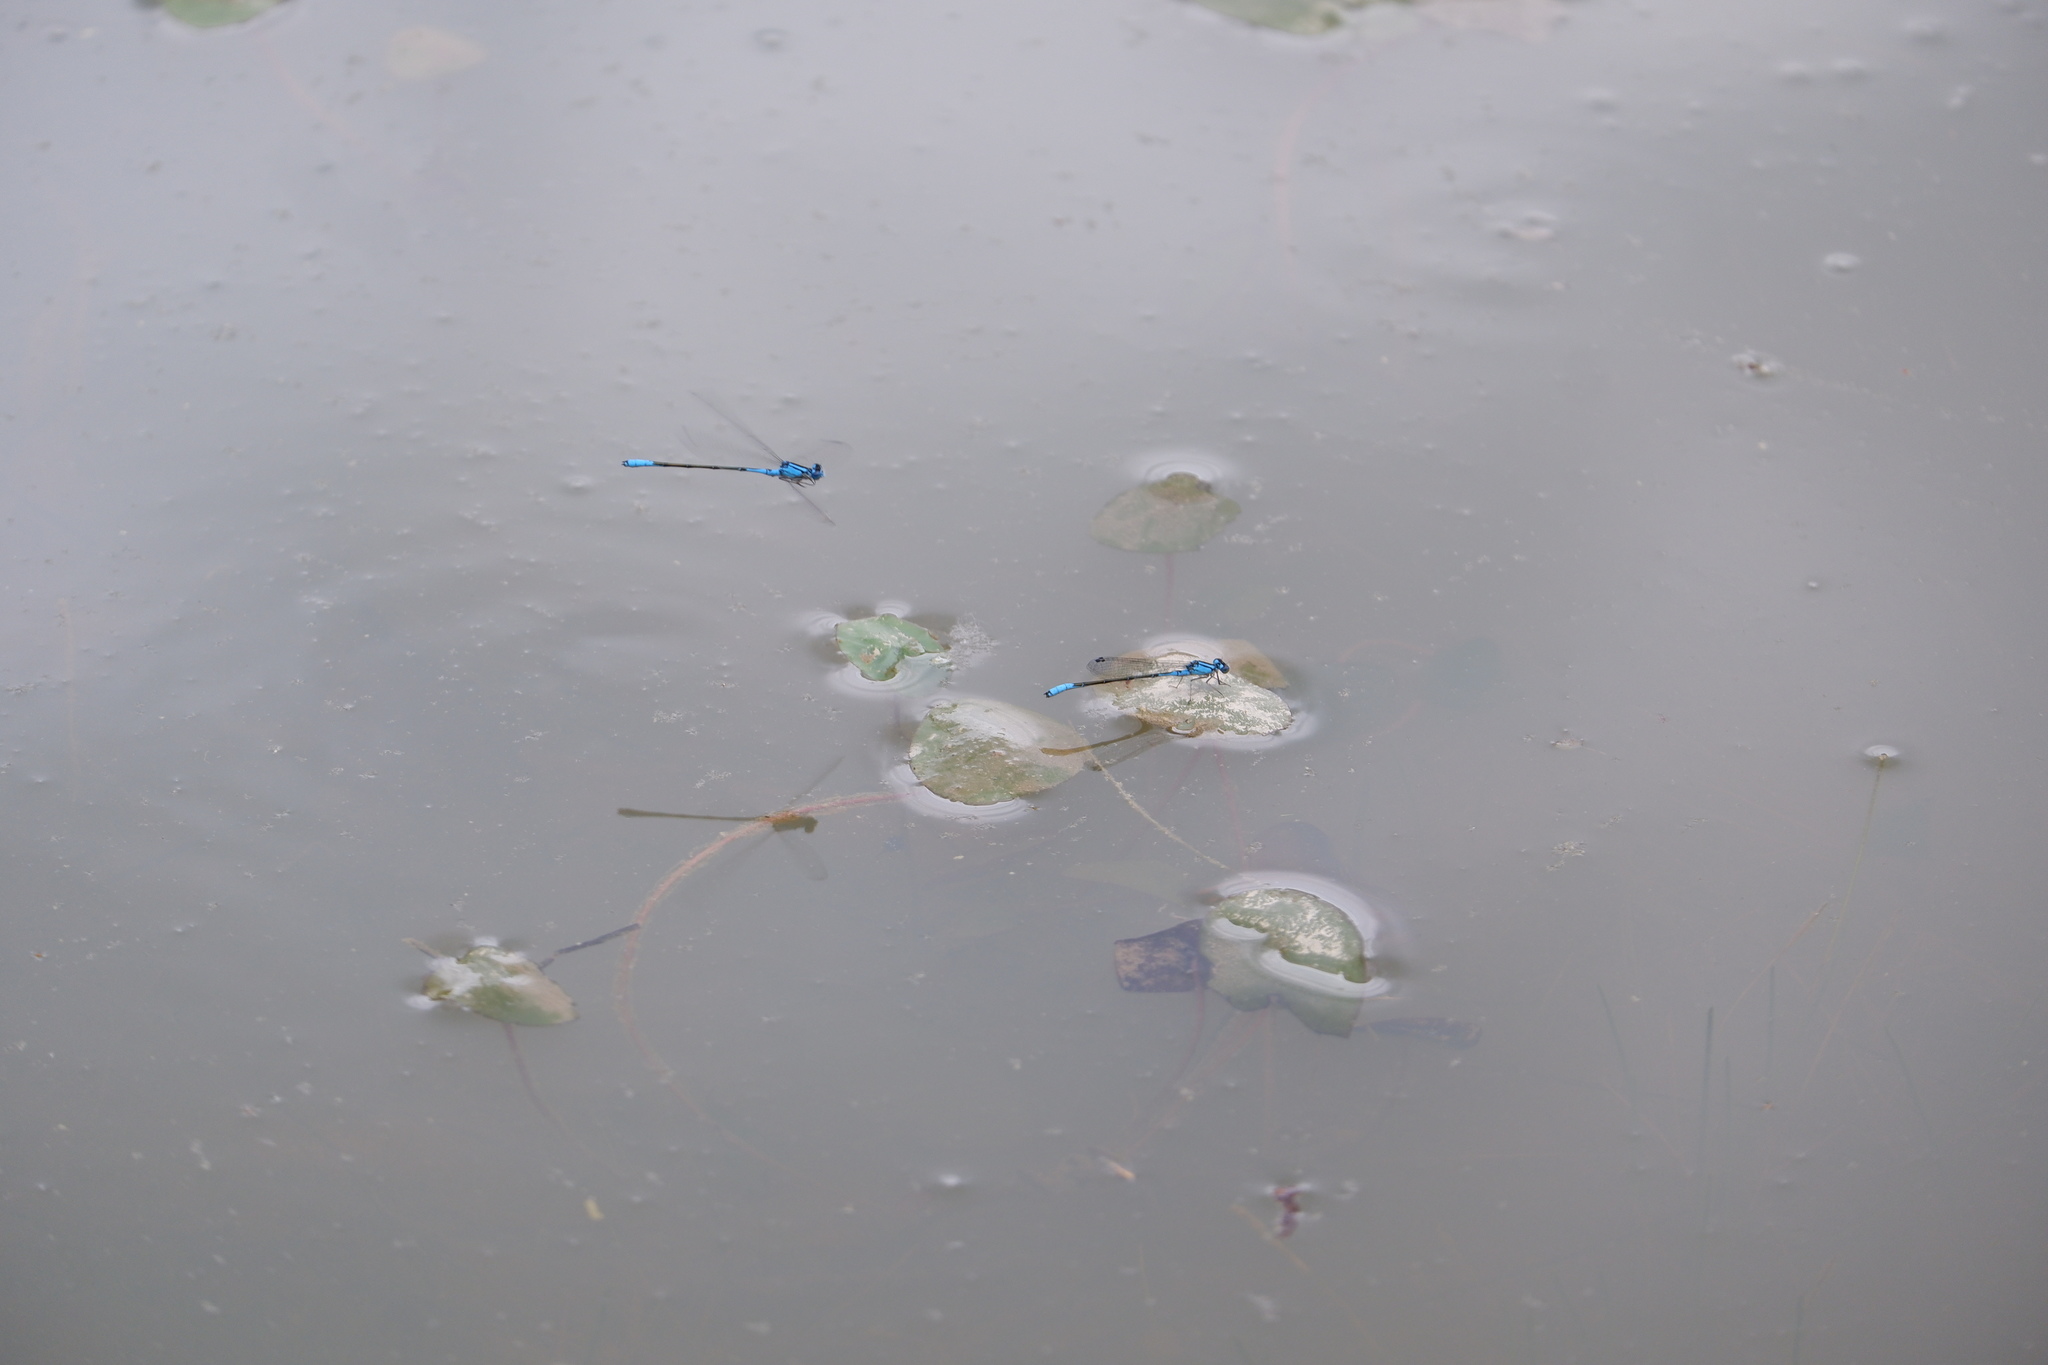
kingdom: Animalia
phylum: Arthropoda
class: Insecta
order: Odonata
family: Coenagrionidae
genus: Enallagma
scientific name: Enallagma aspersum
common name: Azure bluet
